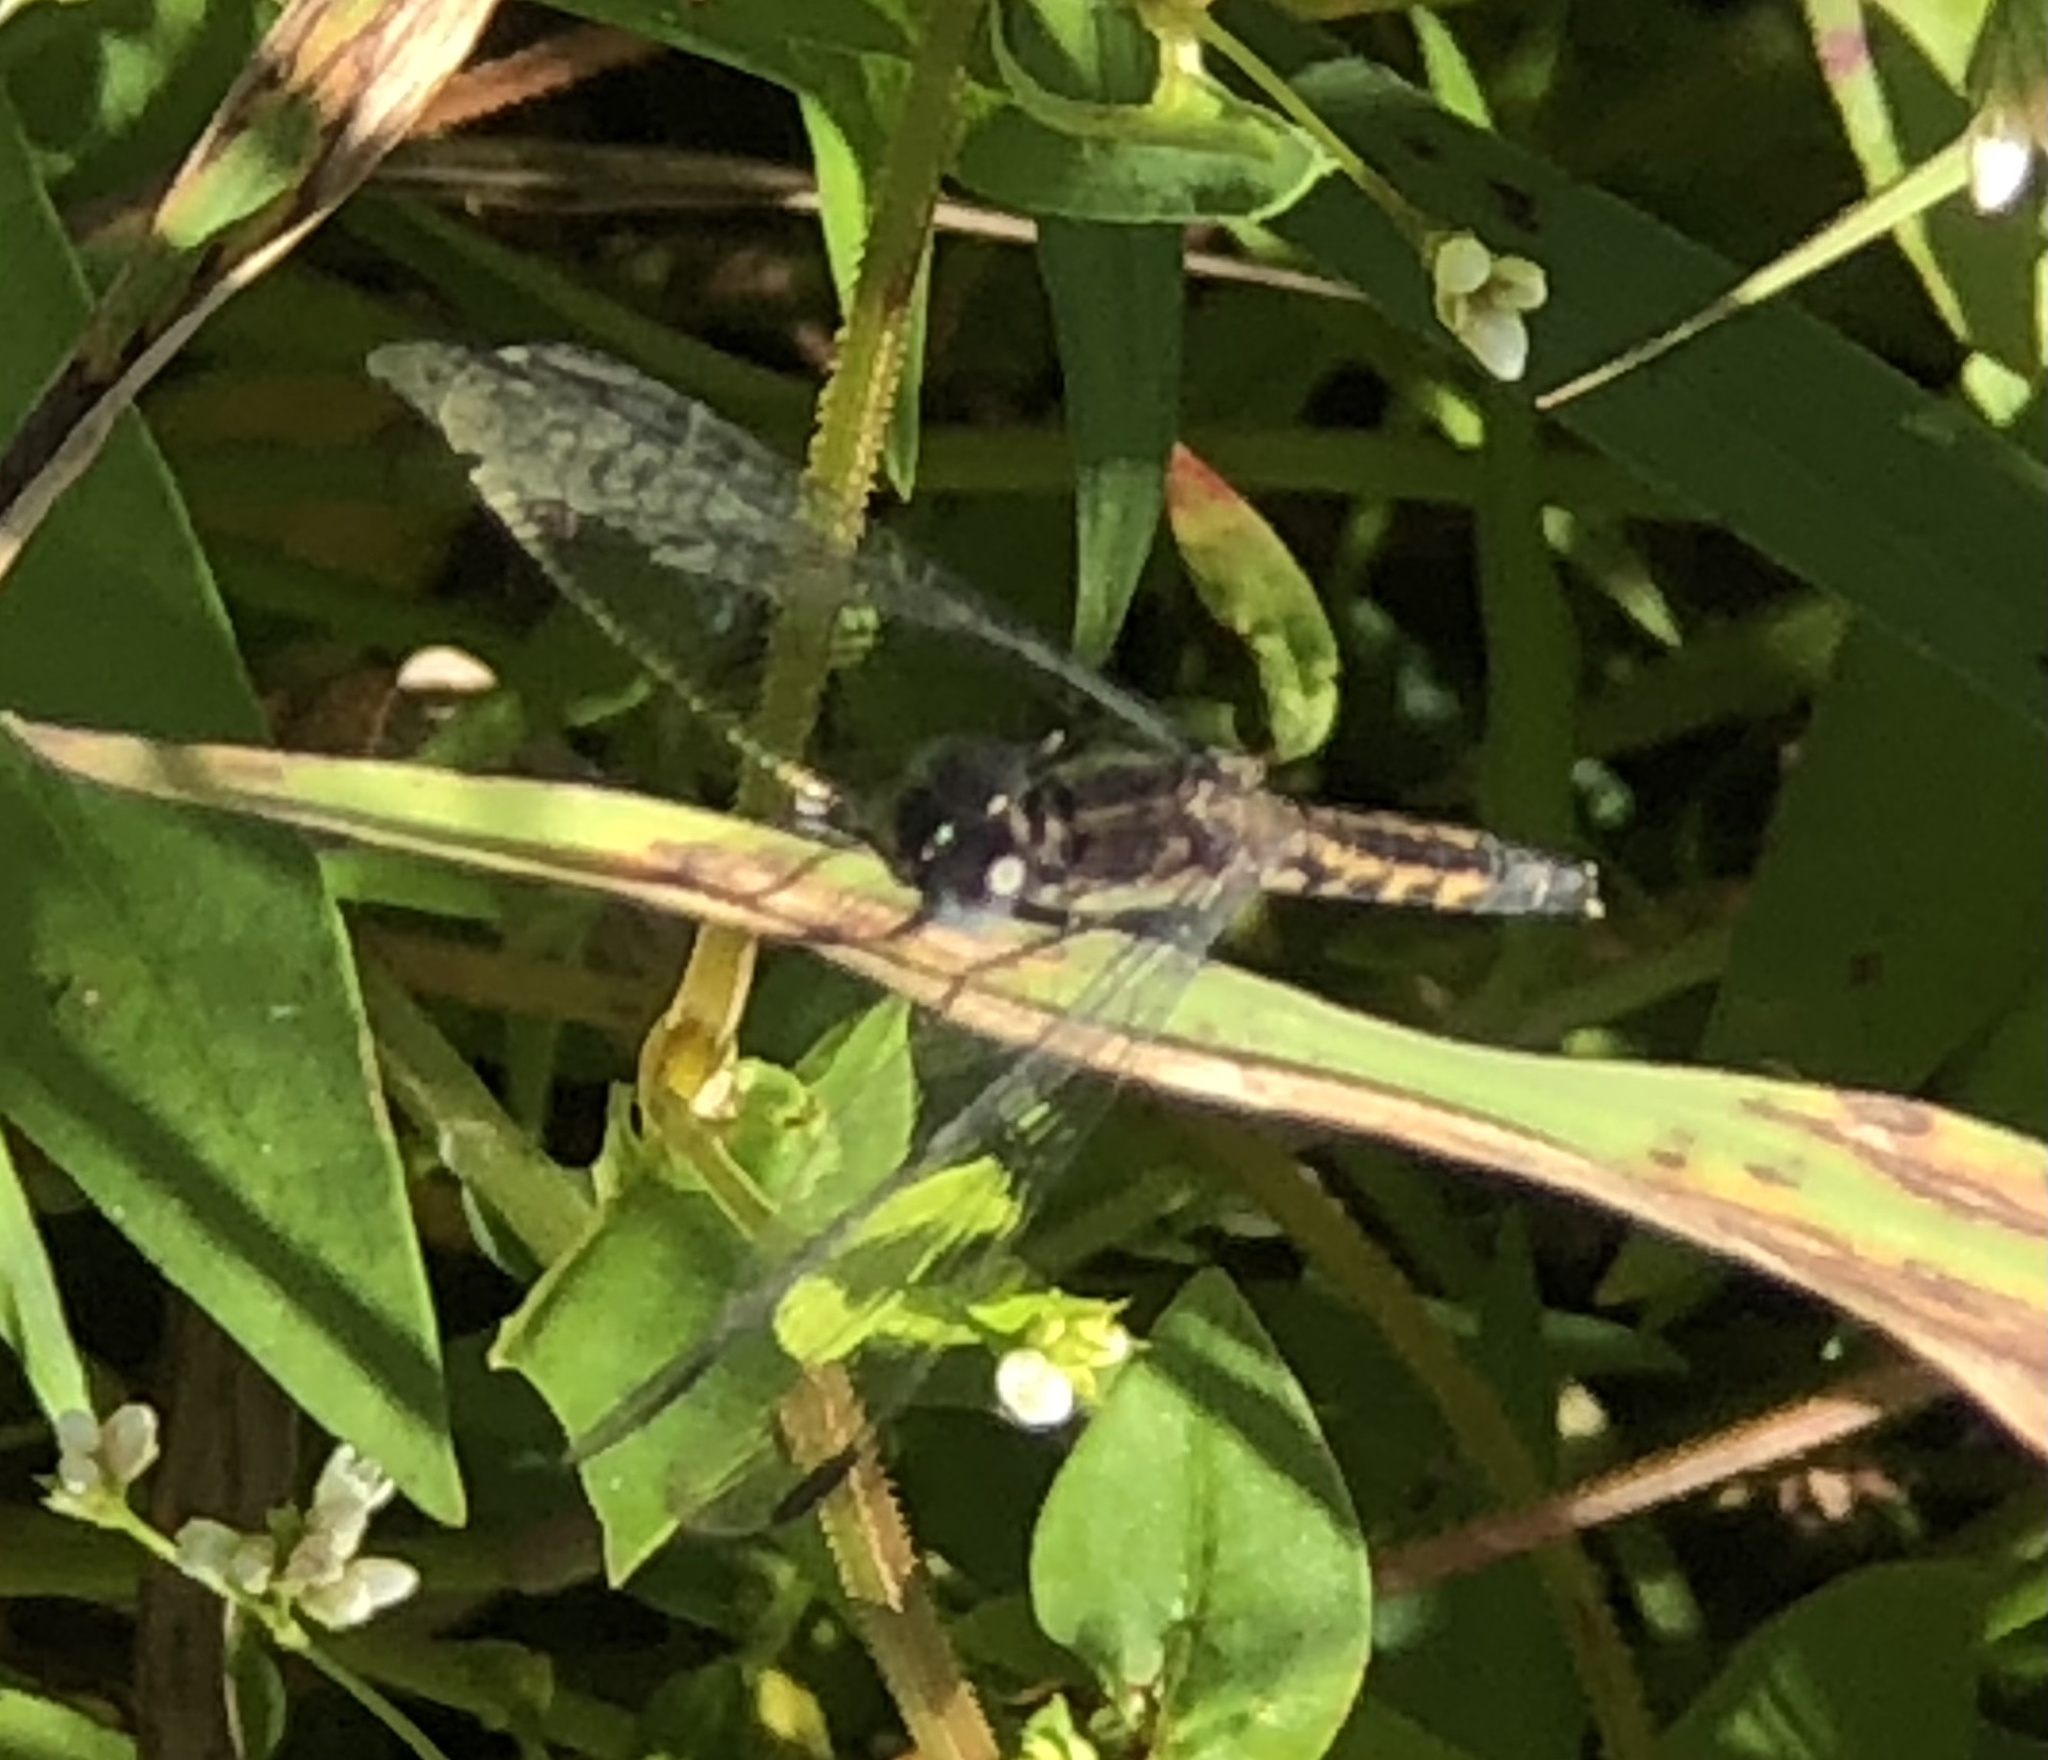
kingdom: Animalia
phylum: Arthropoda
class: Insecta
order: Odonata
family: Libellulidae
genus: Erythrodiplax
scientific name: Erythrodiplax minuscula
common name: Little blue dragonlet
